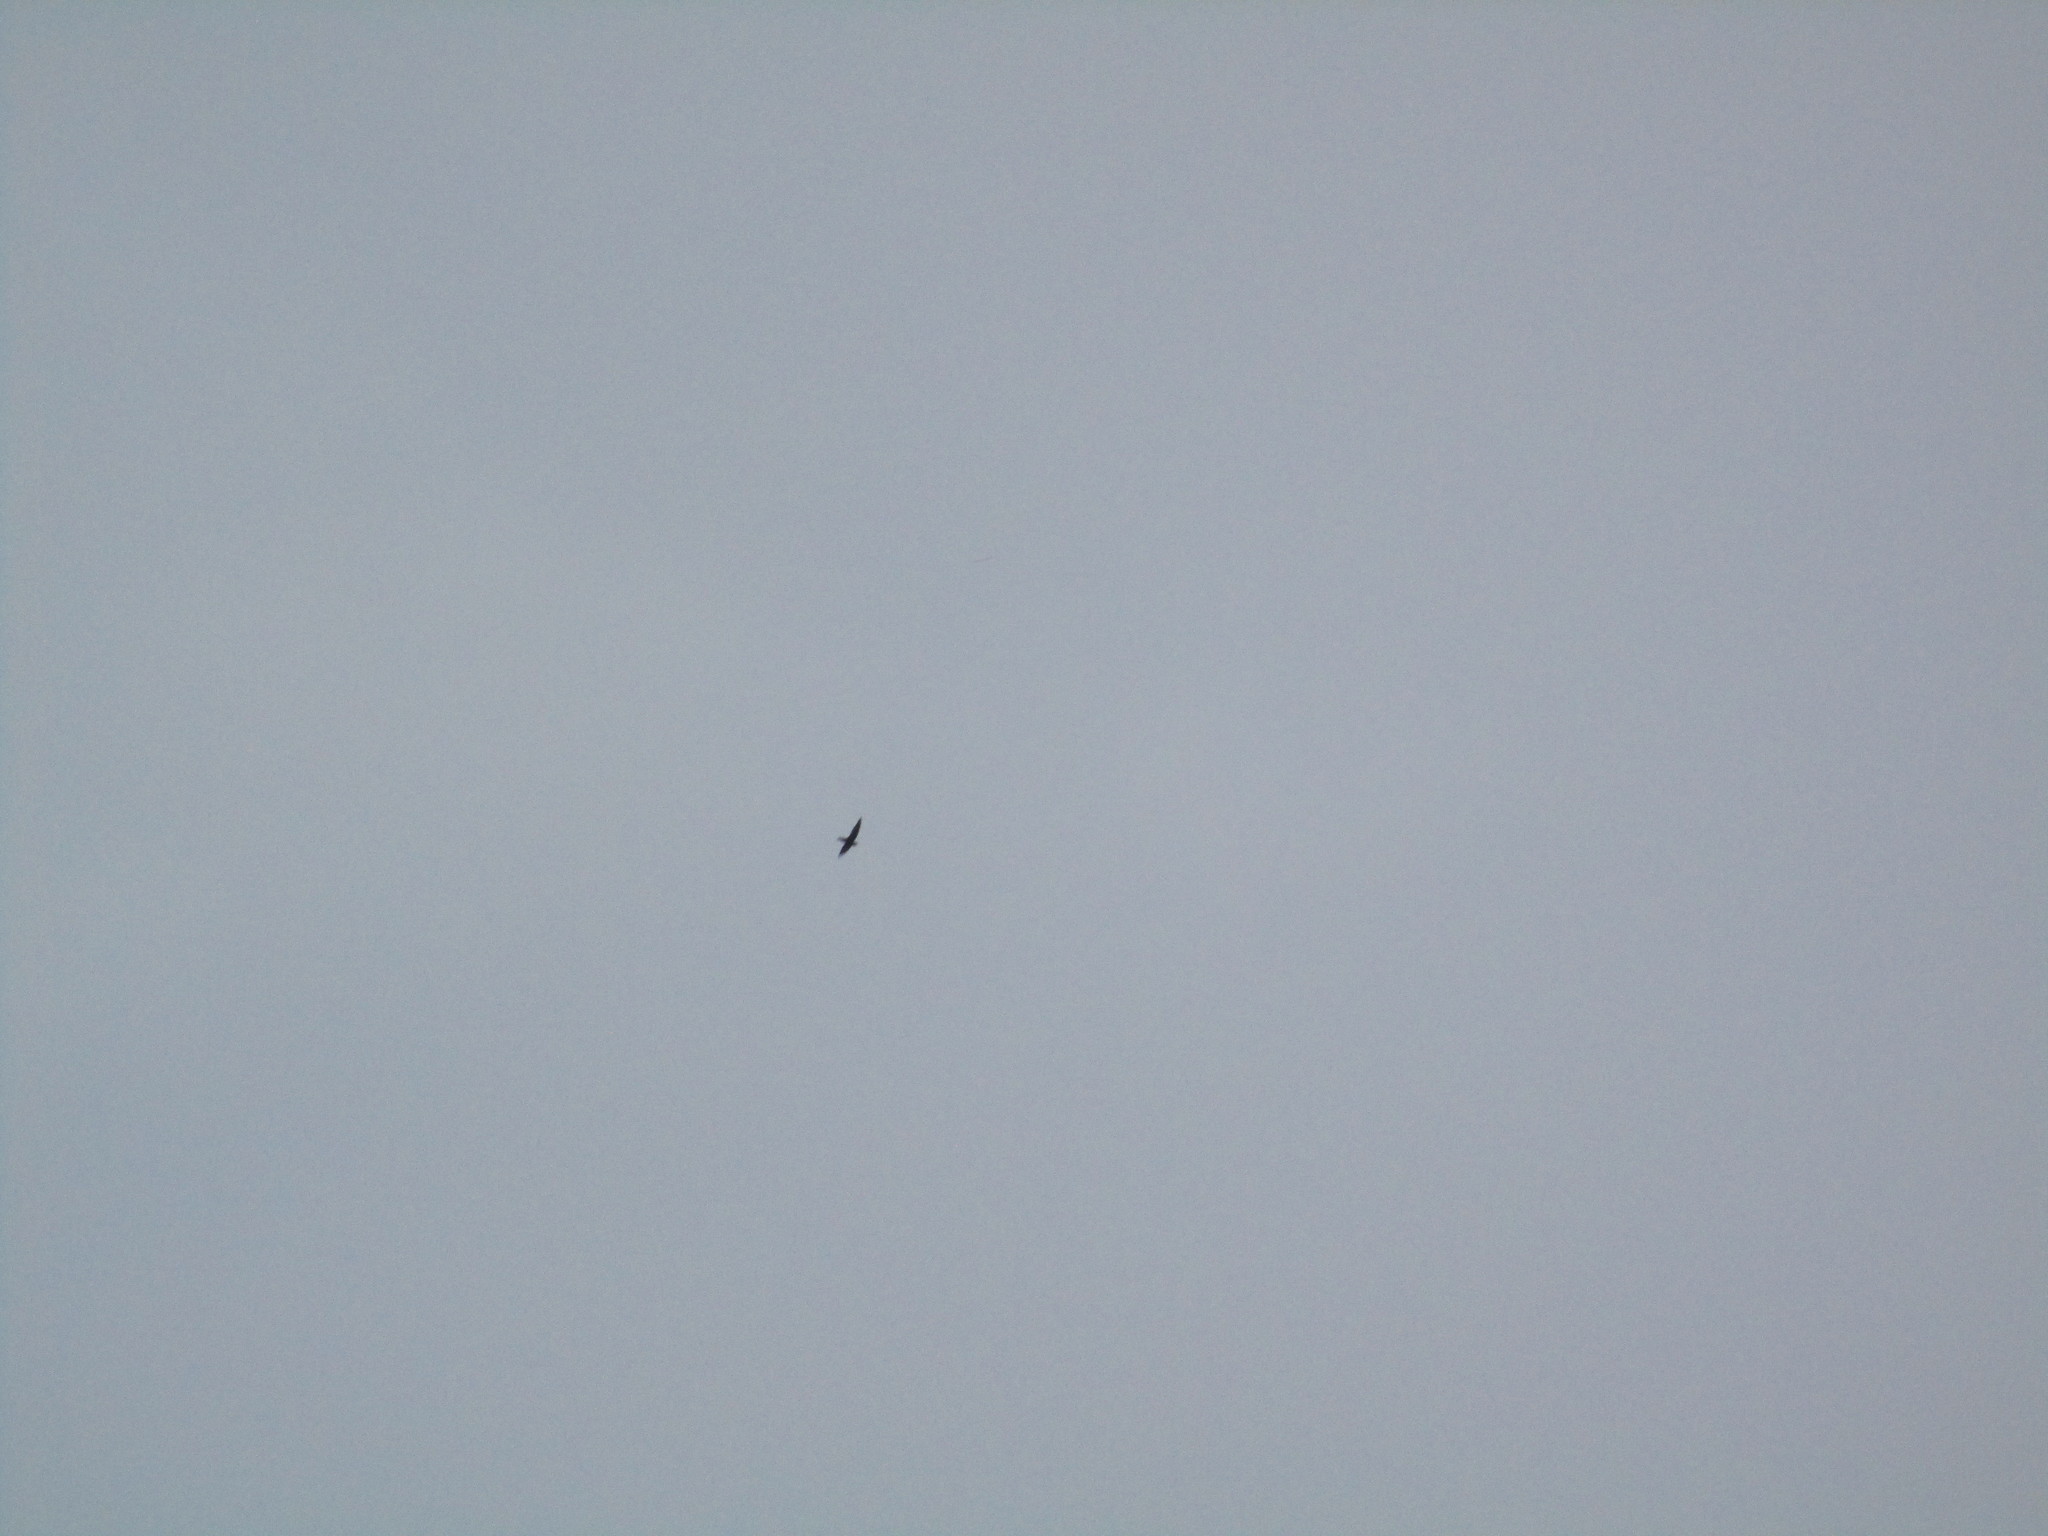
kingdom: Animalia
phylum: Chordata
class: Aves
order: Apodiformes
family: Apodidae
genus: Chaetura
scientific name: Chaetura pelagica
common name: Chimney swift
